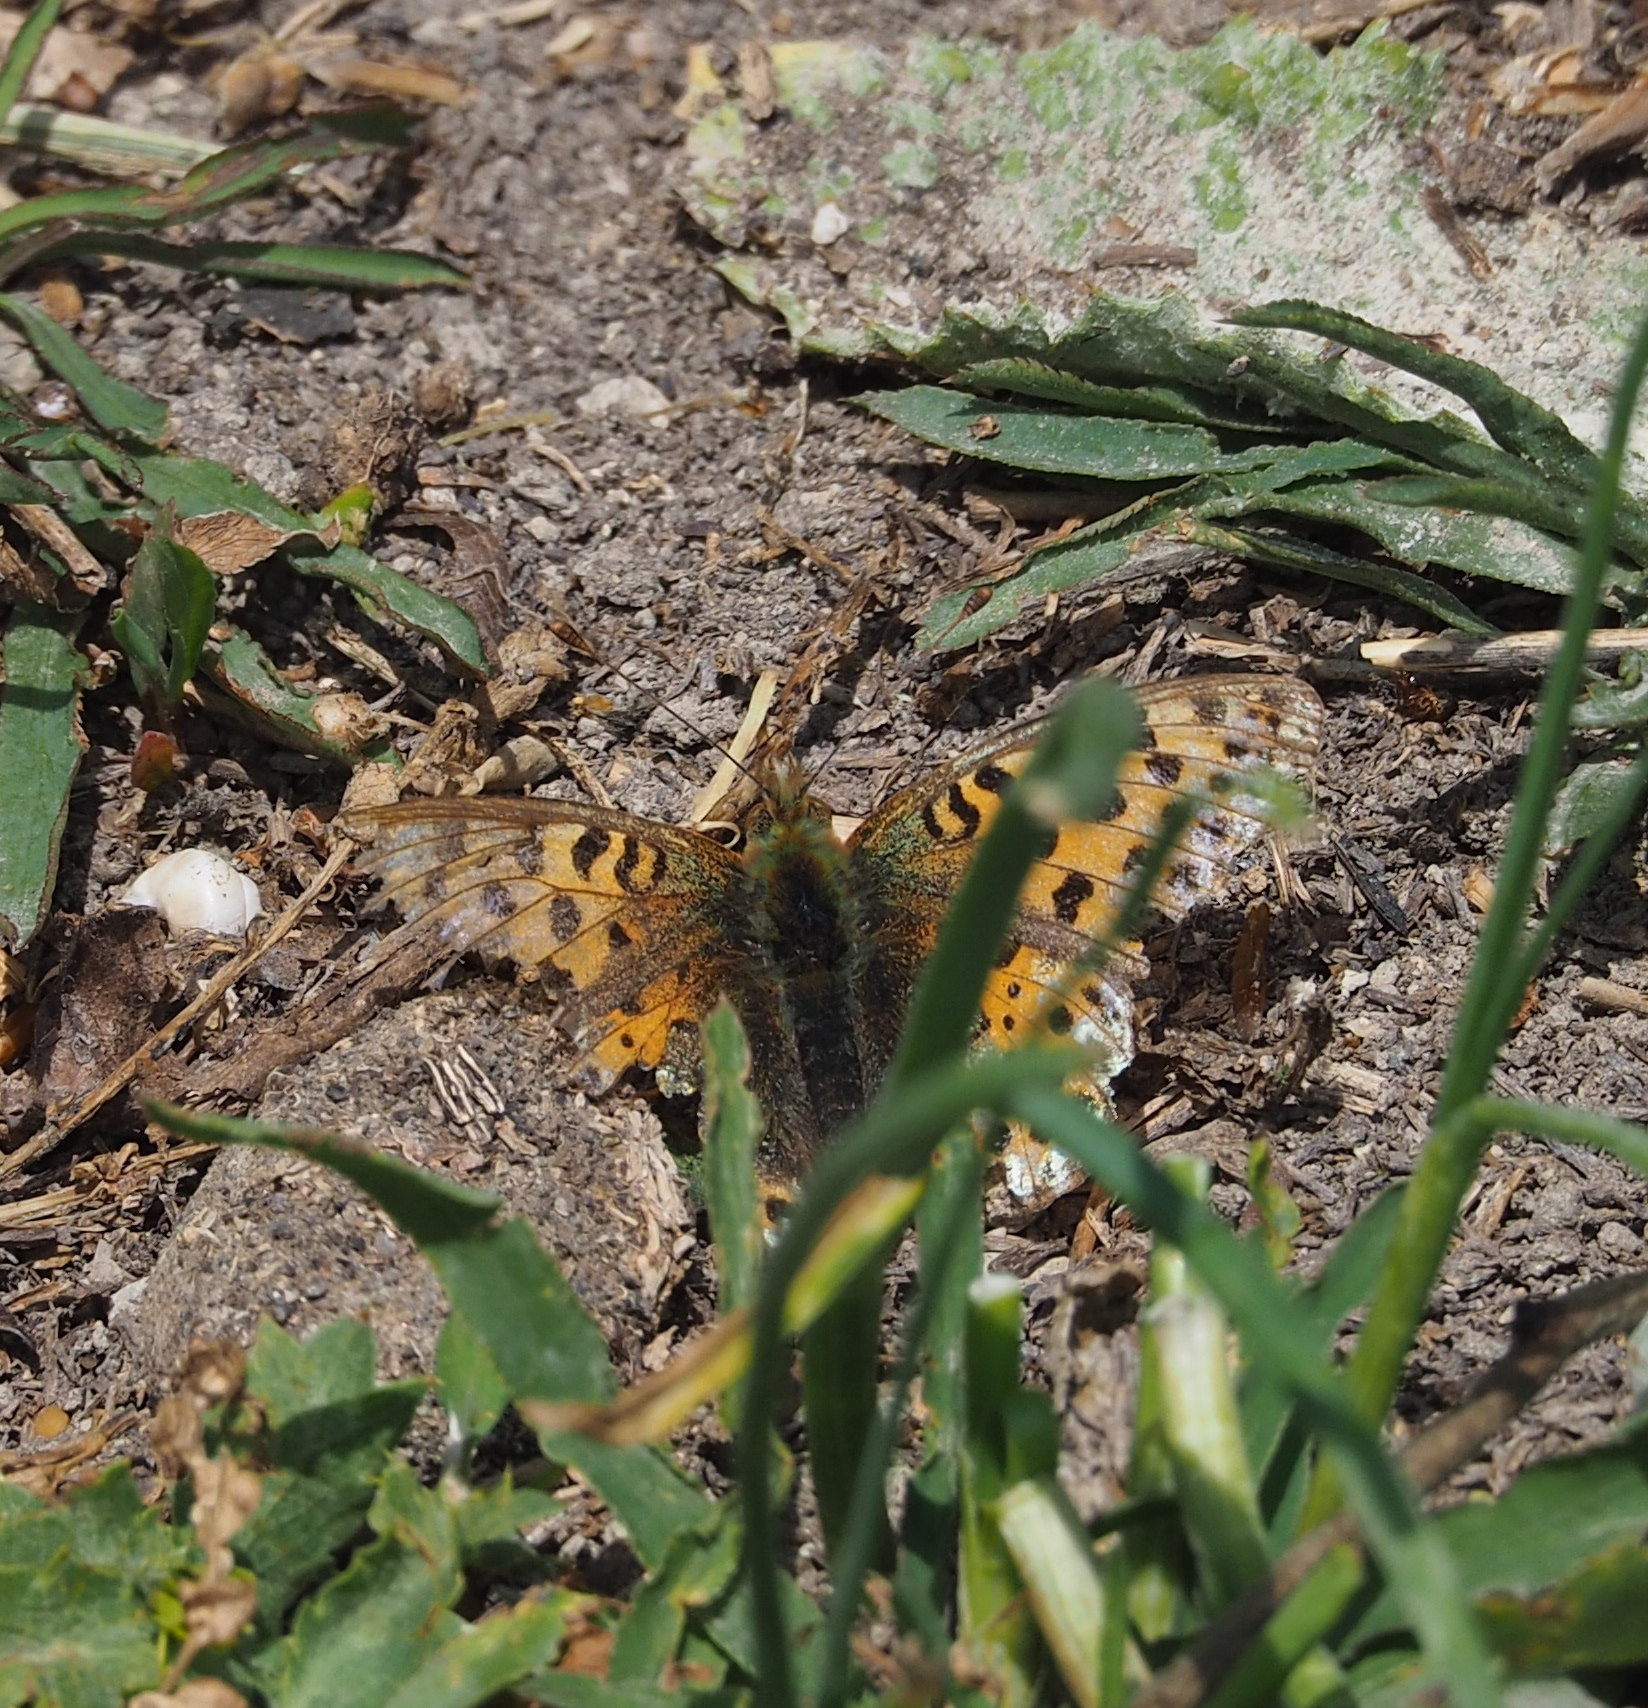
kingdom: Animalia
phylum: Arthropoda
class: Insecta
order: Lepidoptera
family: Nymphalidae
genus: Issoria
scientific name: Issoria lathonia
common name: Queen of spain fritillary
